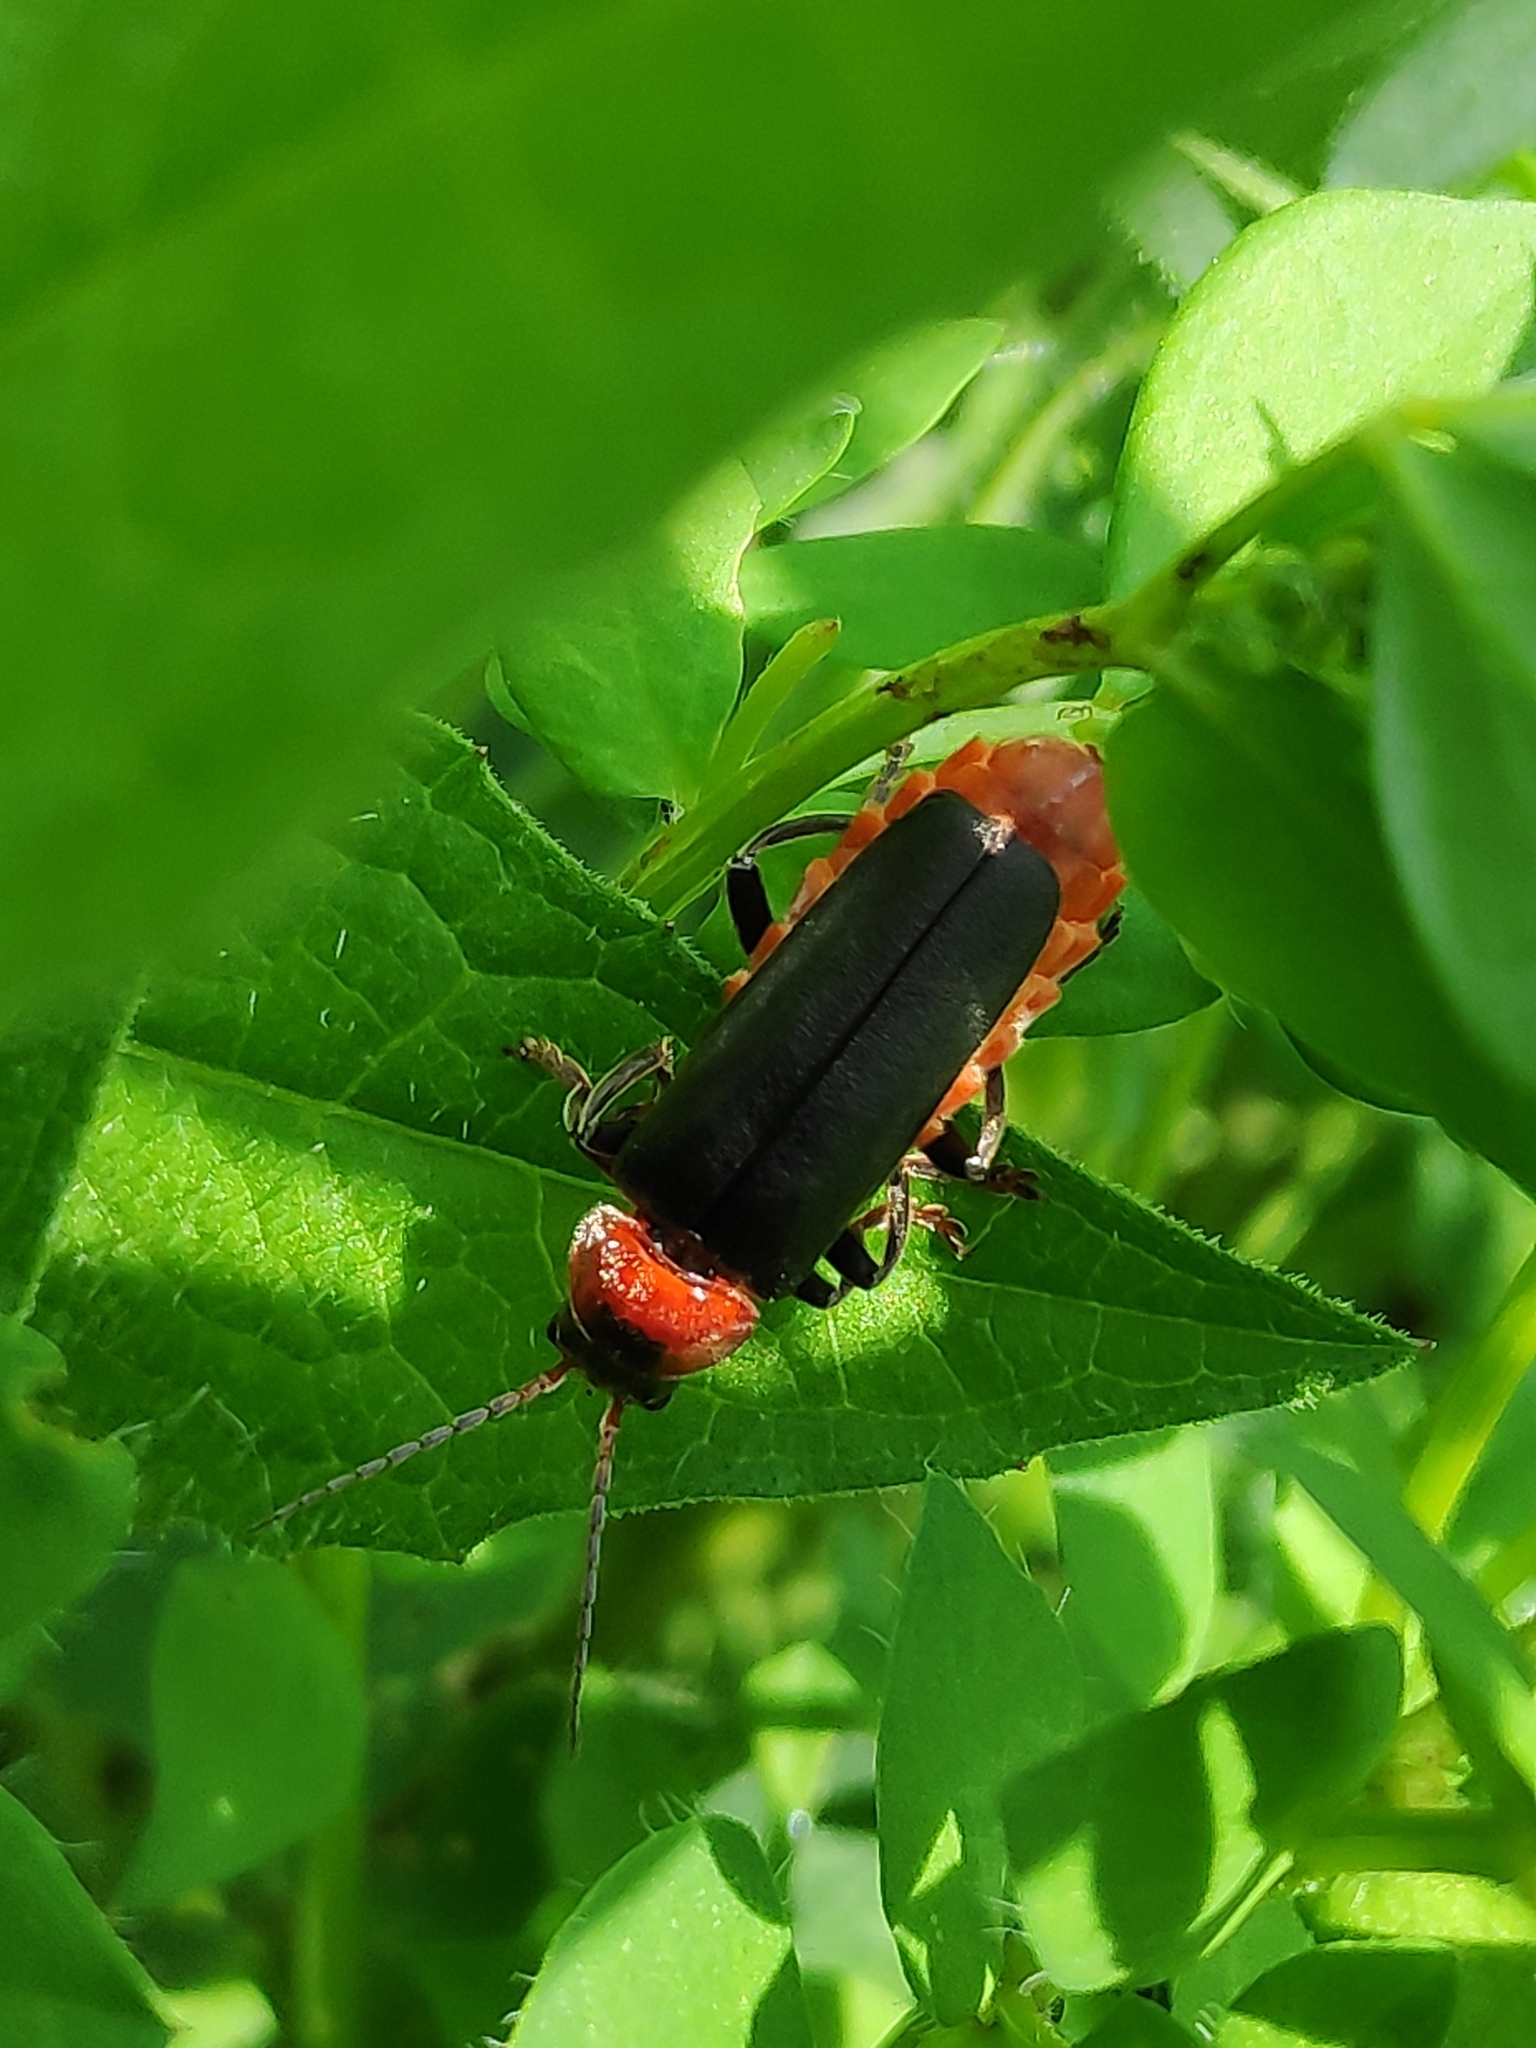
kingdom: Animalia
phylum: Arthropoda
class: Insecta
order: Coleoptera
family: Cantharidae
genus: Cantharis
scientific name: Cantharis fusca
